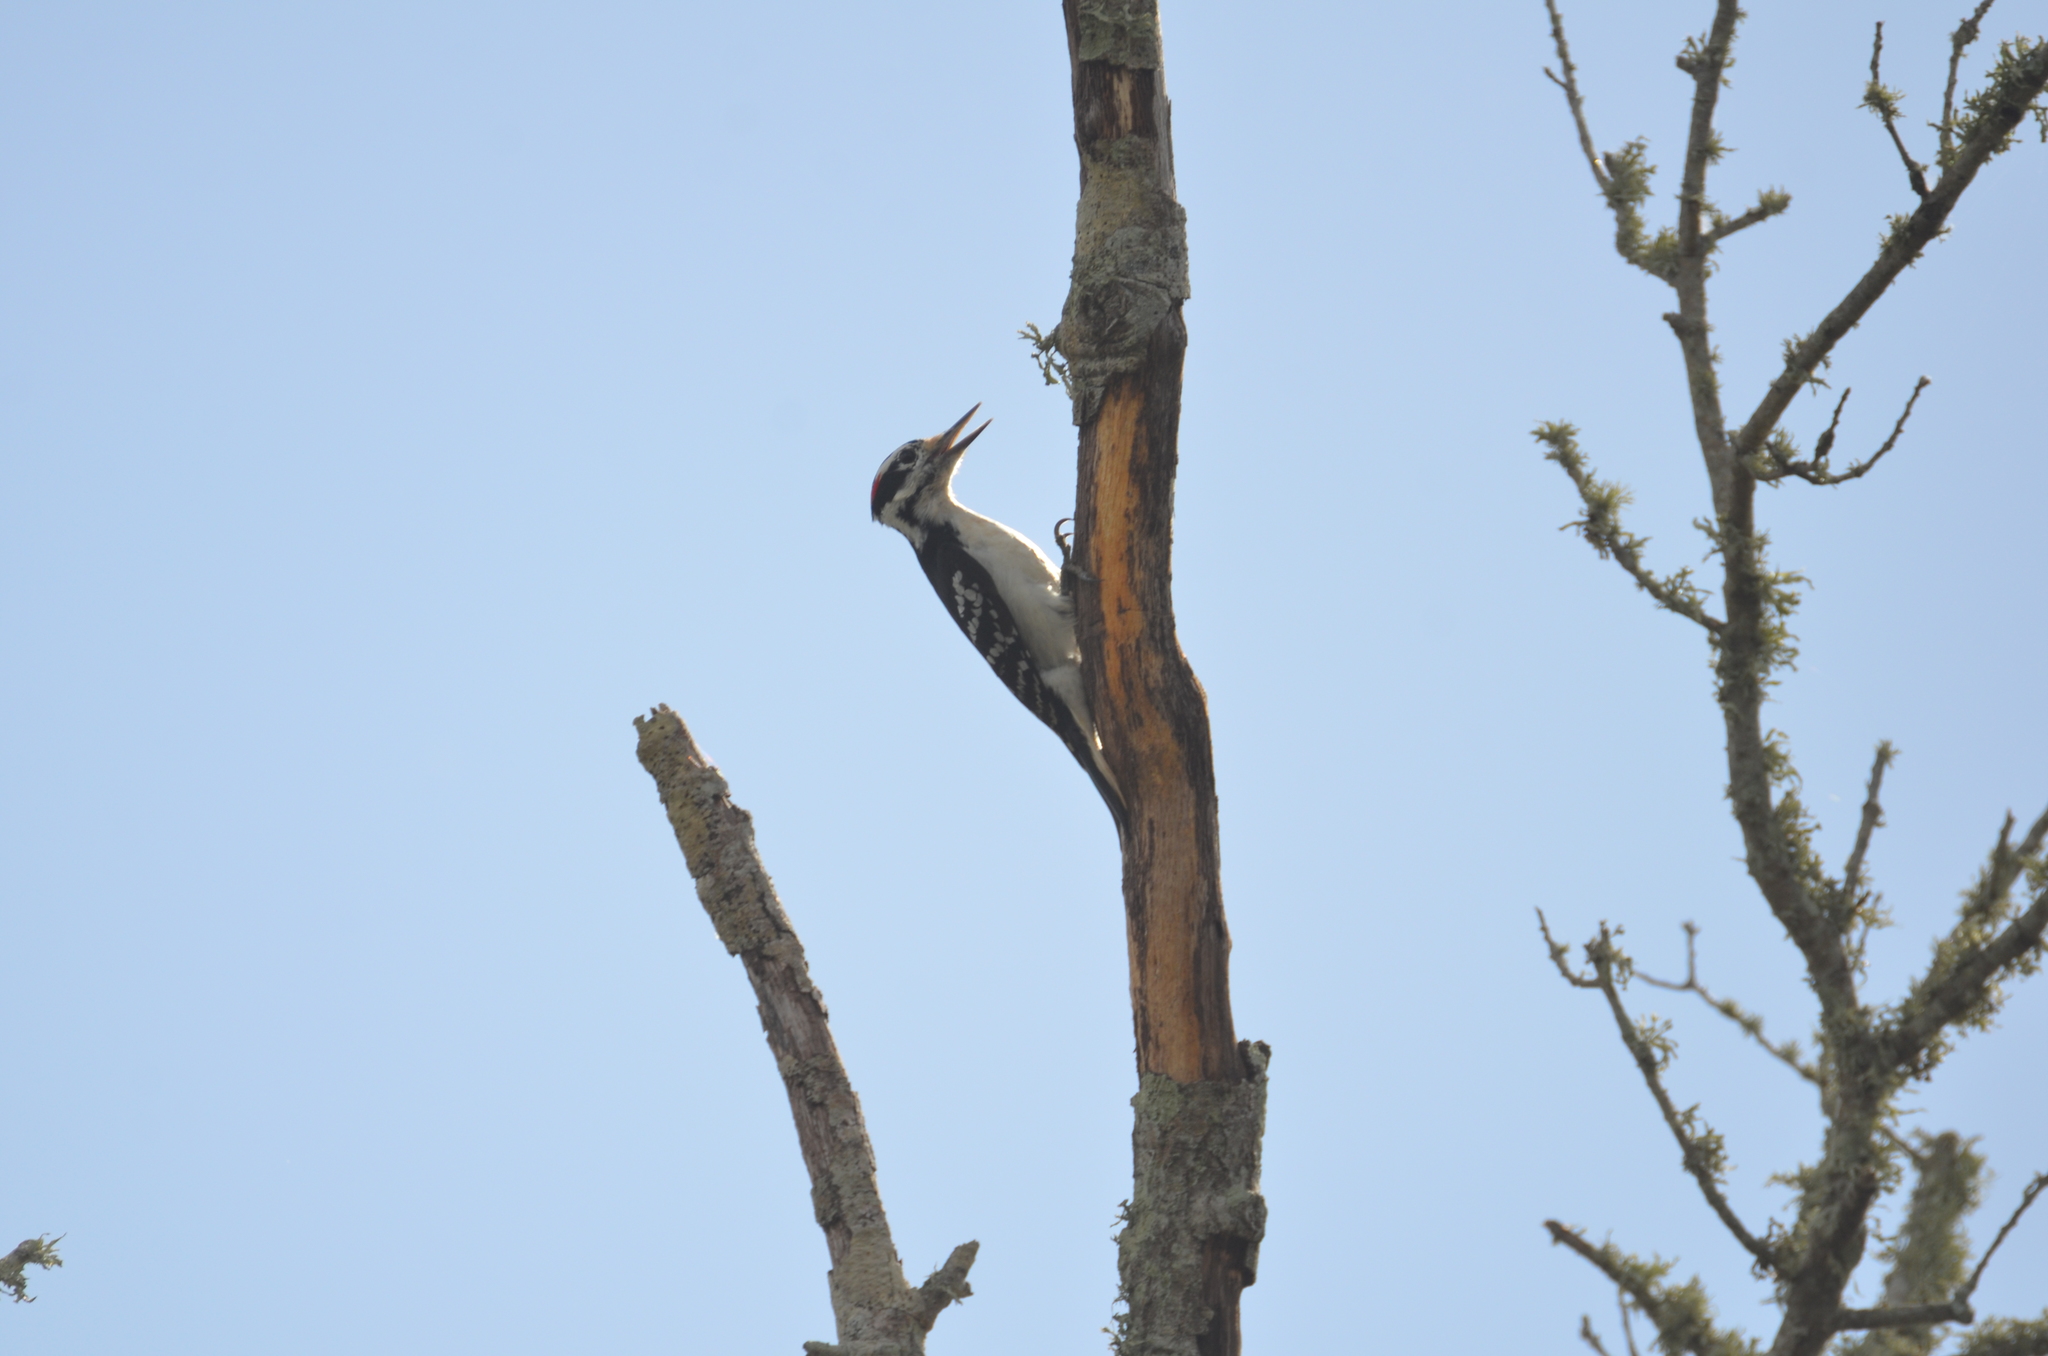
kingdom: Animalia
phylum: Chordata
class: Aves
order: Piciformes
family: Picidae
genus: Leuconotopicus
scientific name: Leuconotopicus villosus
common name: Hairy woodpecker
